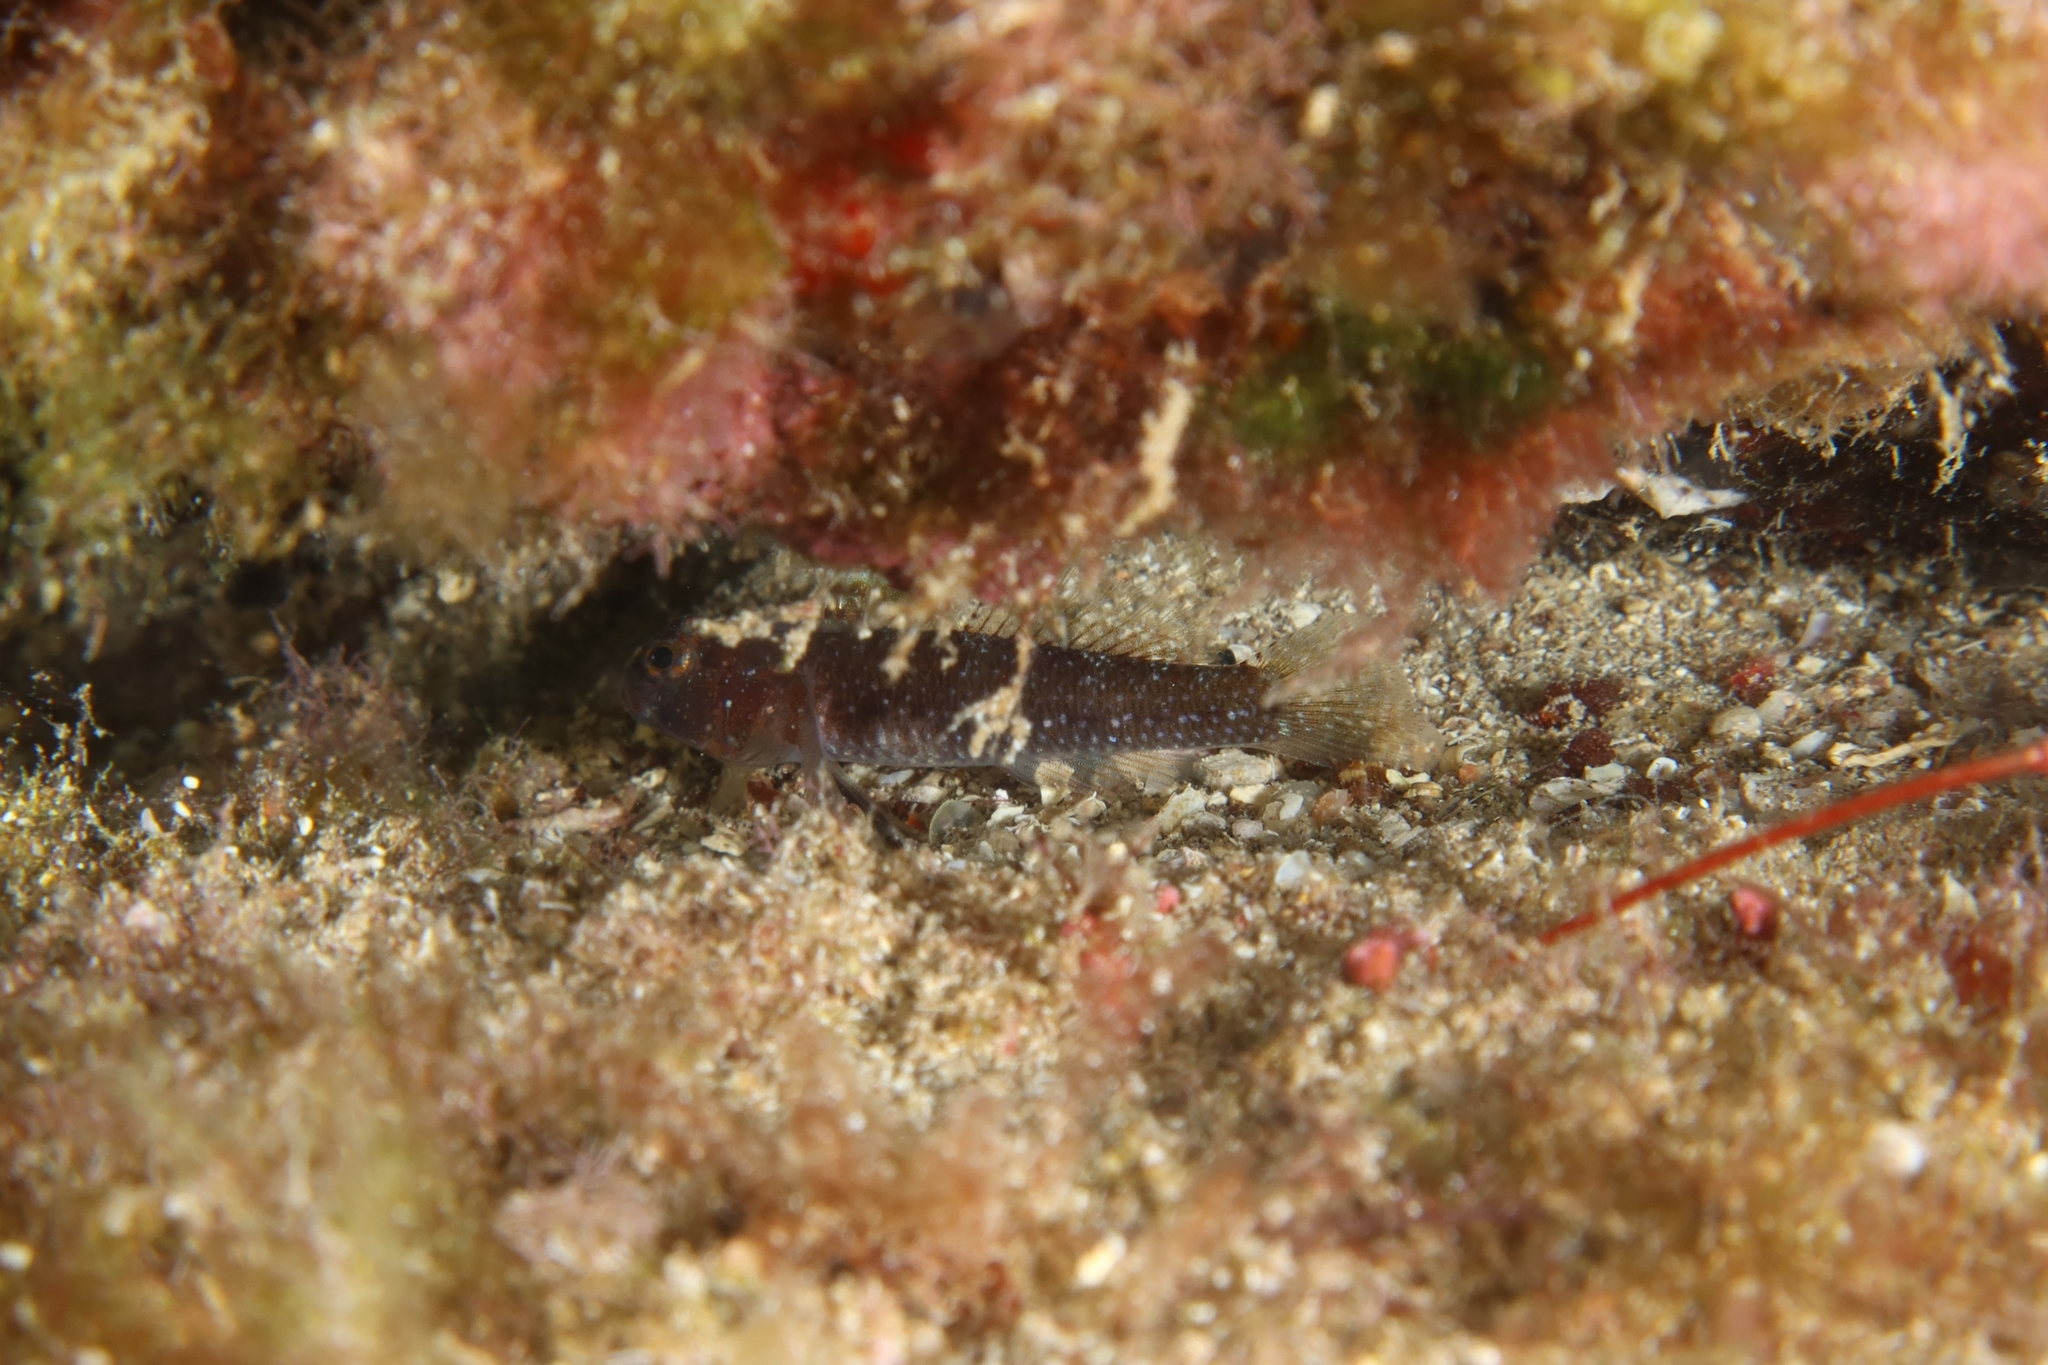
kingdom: Animalia
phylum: Chordata
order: Perciformes
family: Gobiidae
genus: Vanneaugobius
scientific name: Vanneaugobius canariensis
